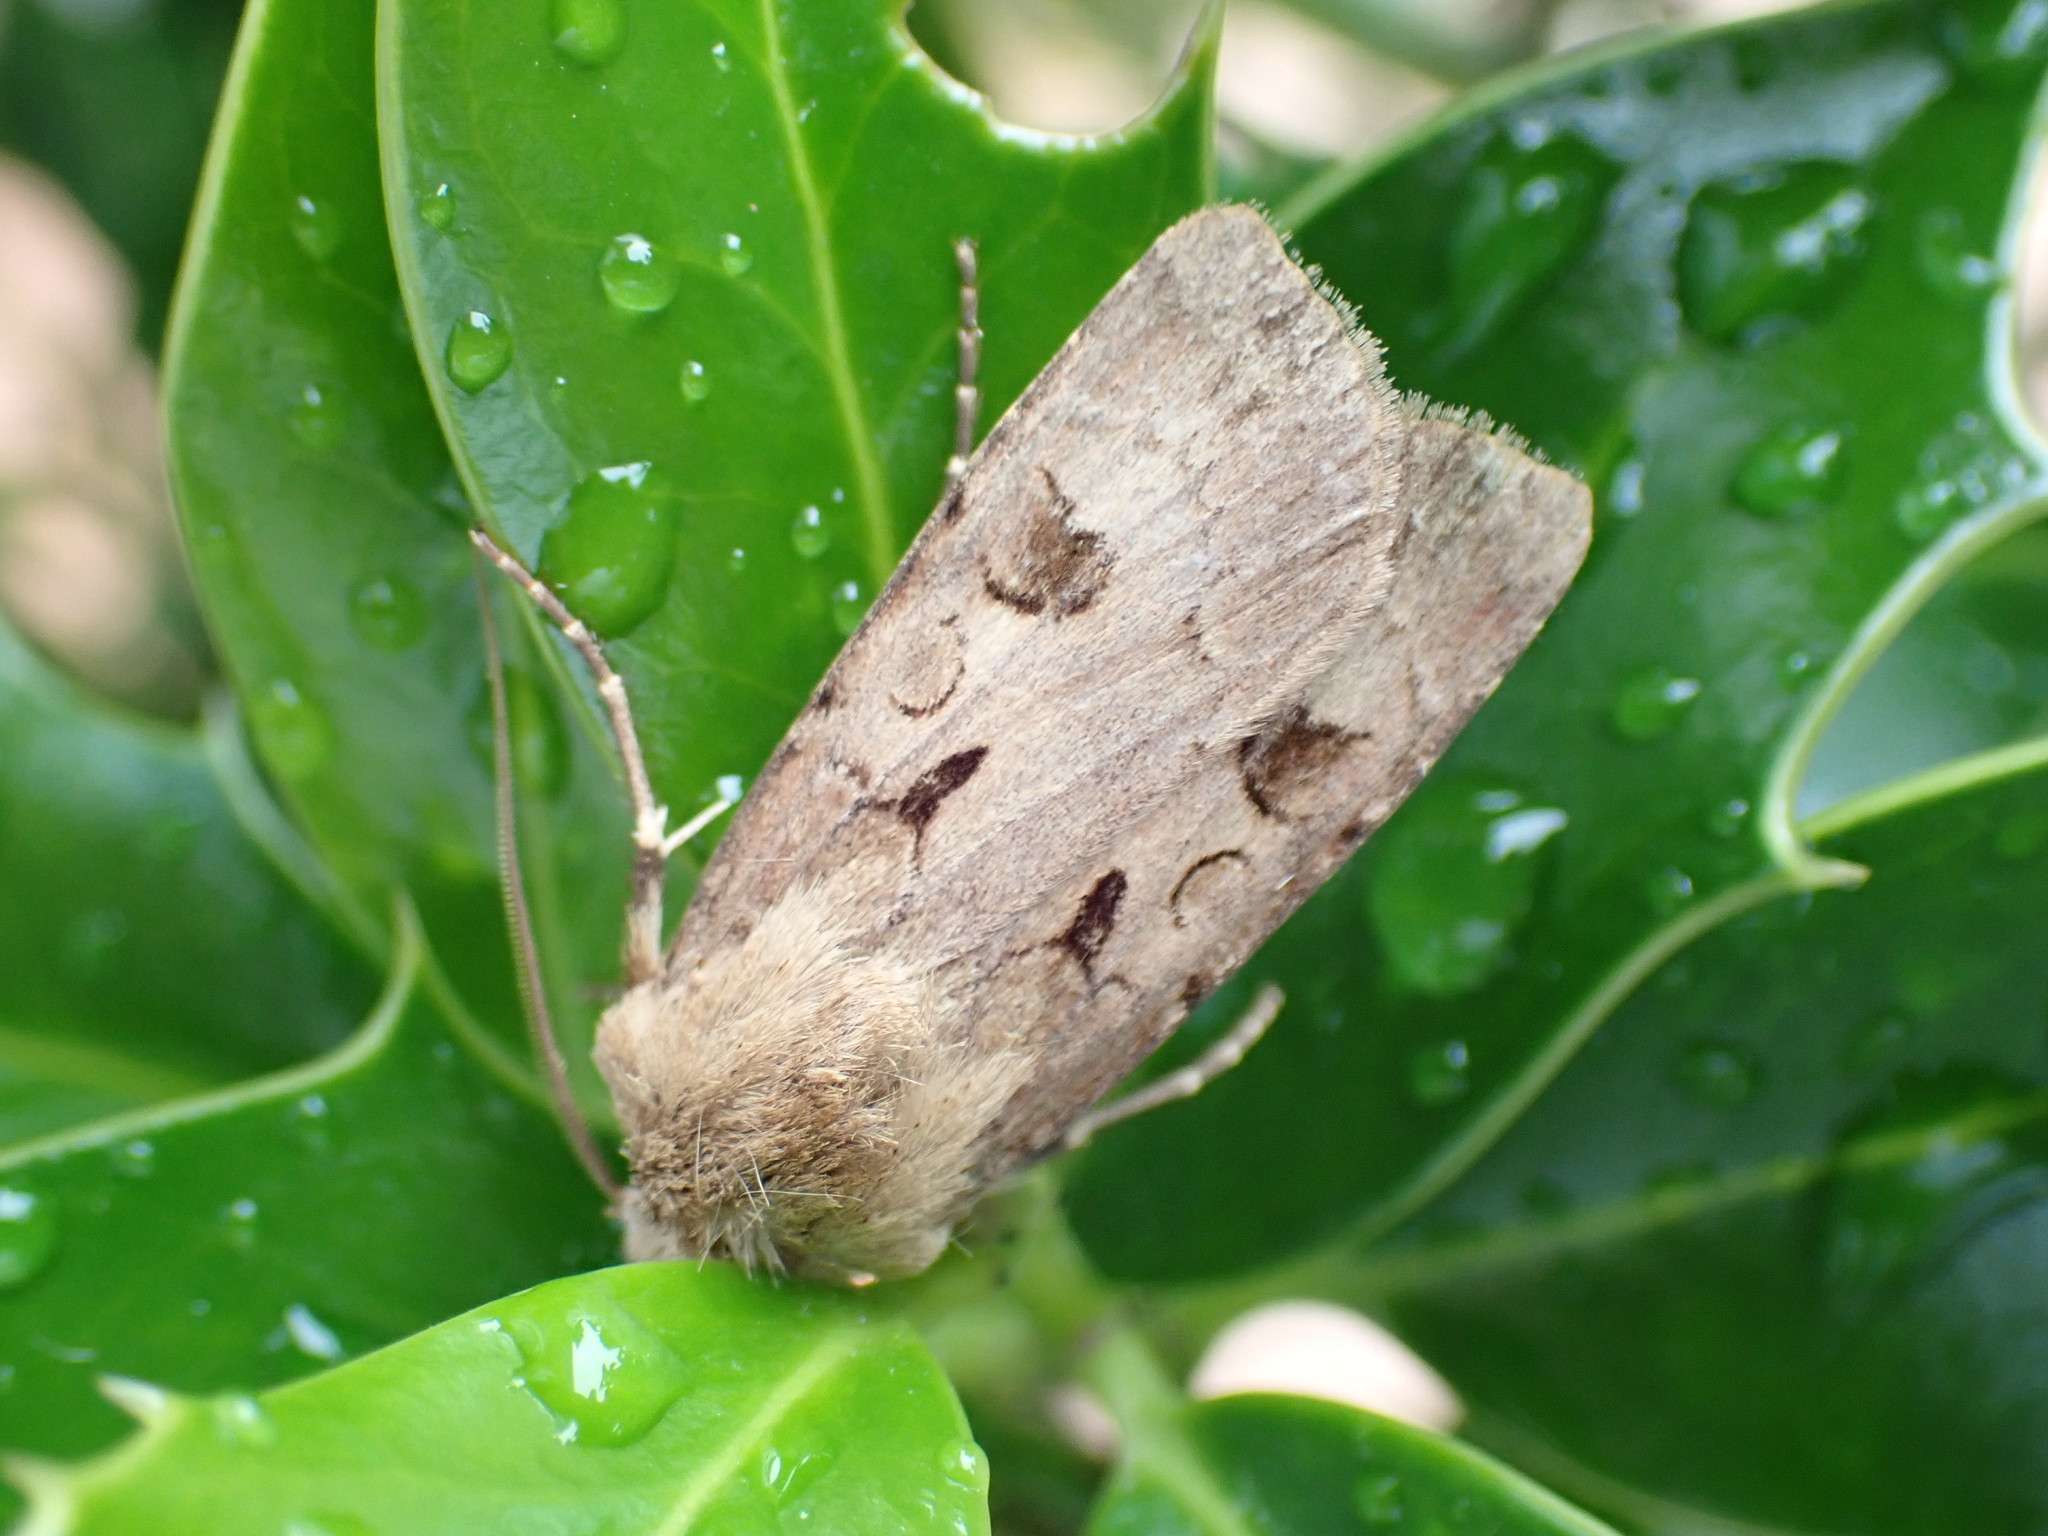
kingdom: Animalia
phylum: Arthropoda
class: Insecta
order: Lepidoptera
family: Noctuidae
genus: Agrotis
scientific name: Agrotis exclamationis
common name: Heart and dart
